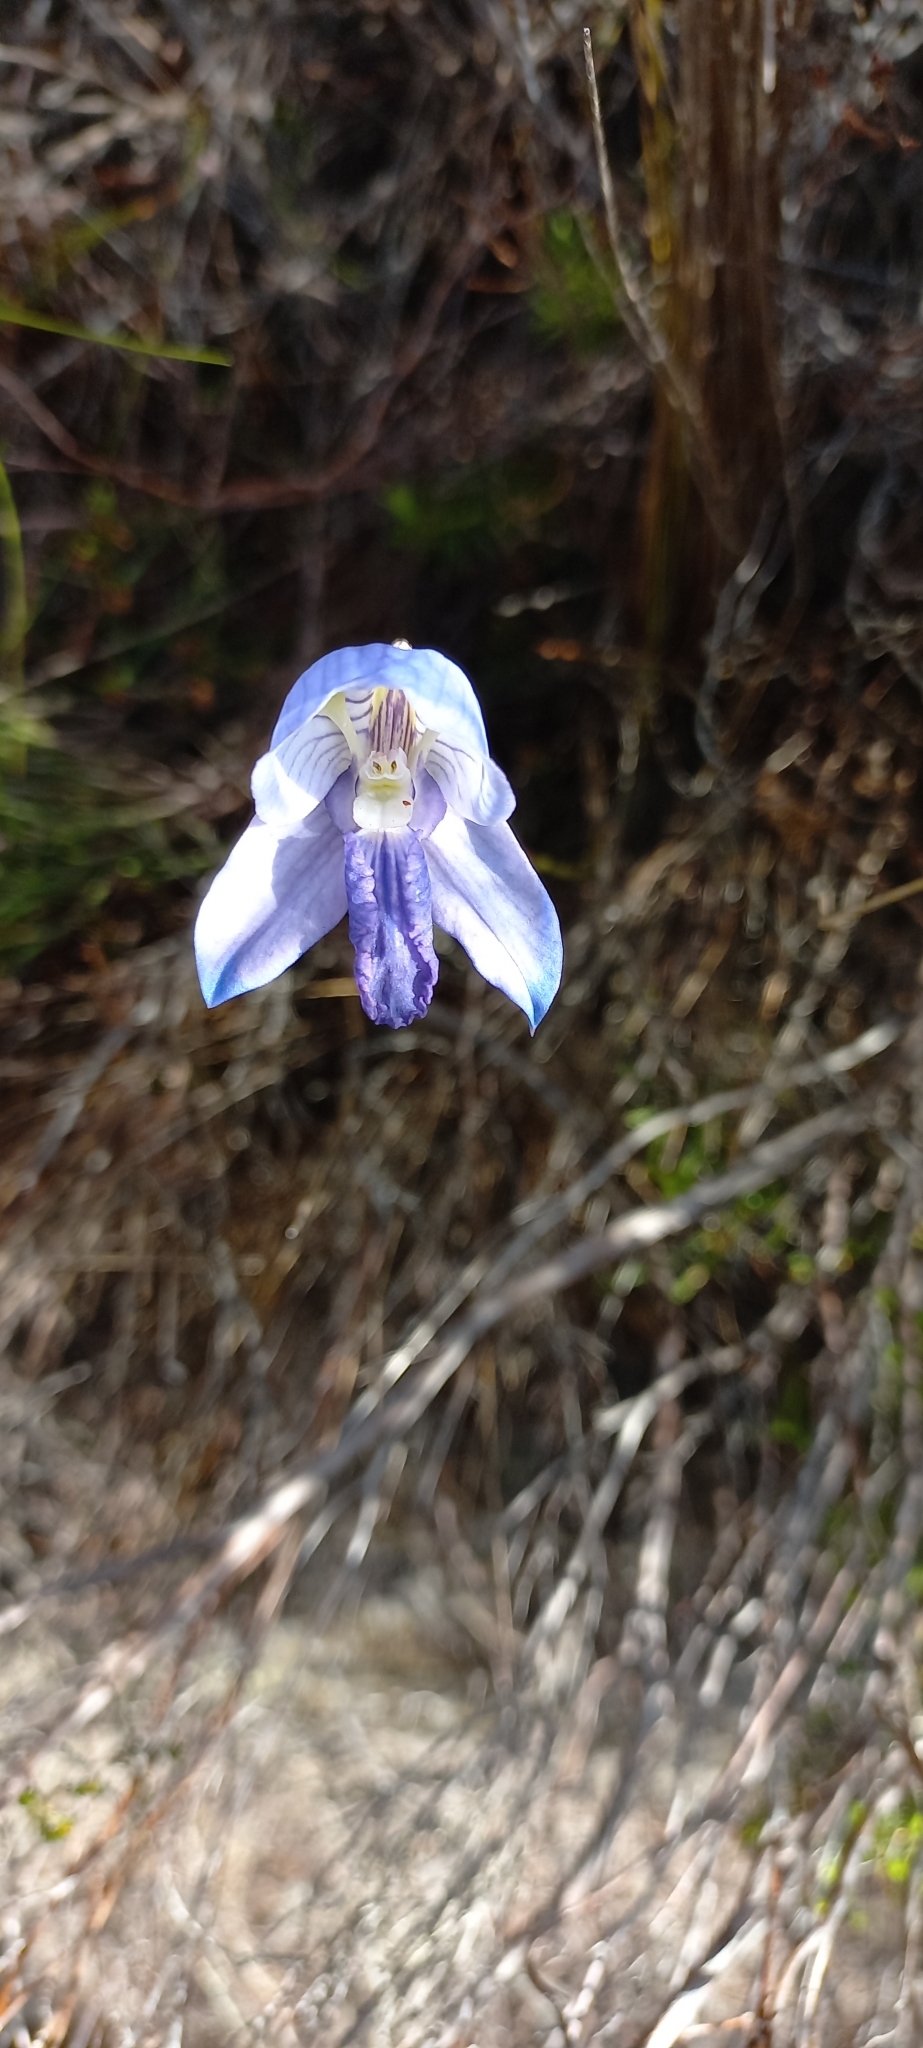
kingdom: Plantae
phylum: Tracheophyta
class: Liliopsida
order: Asparagales
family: Orchidaceae
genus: Disa
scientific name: Disa purpurascens
